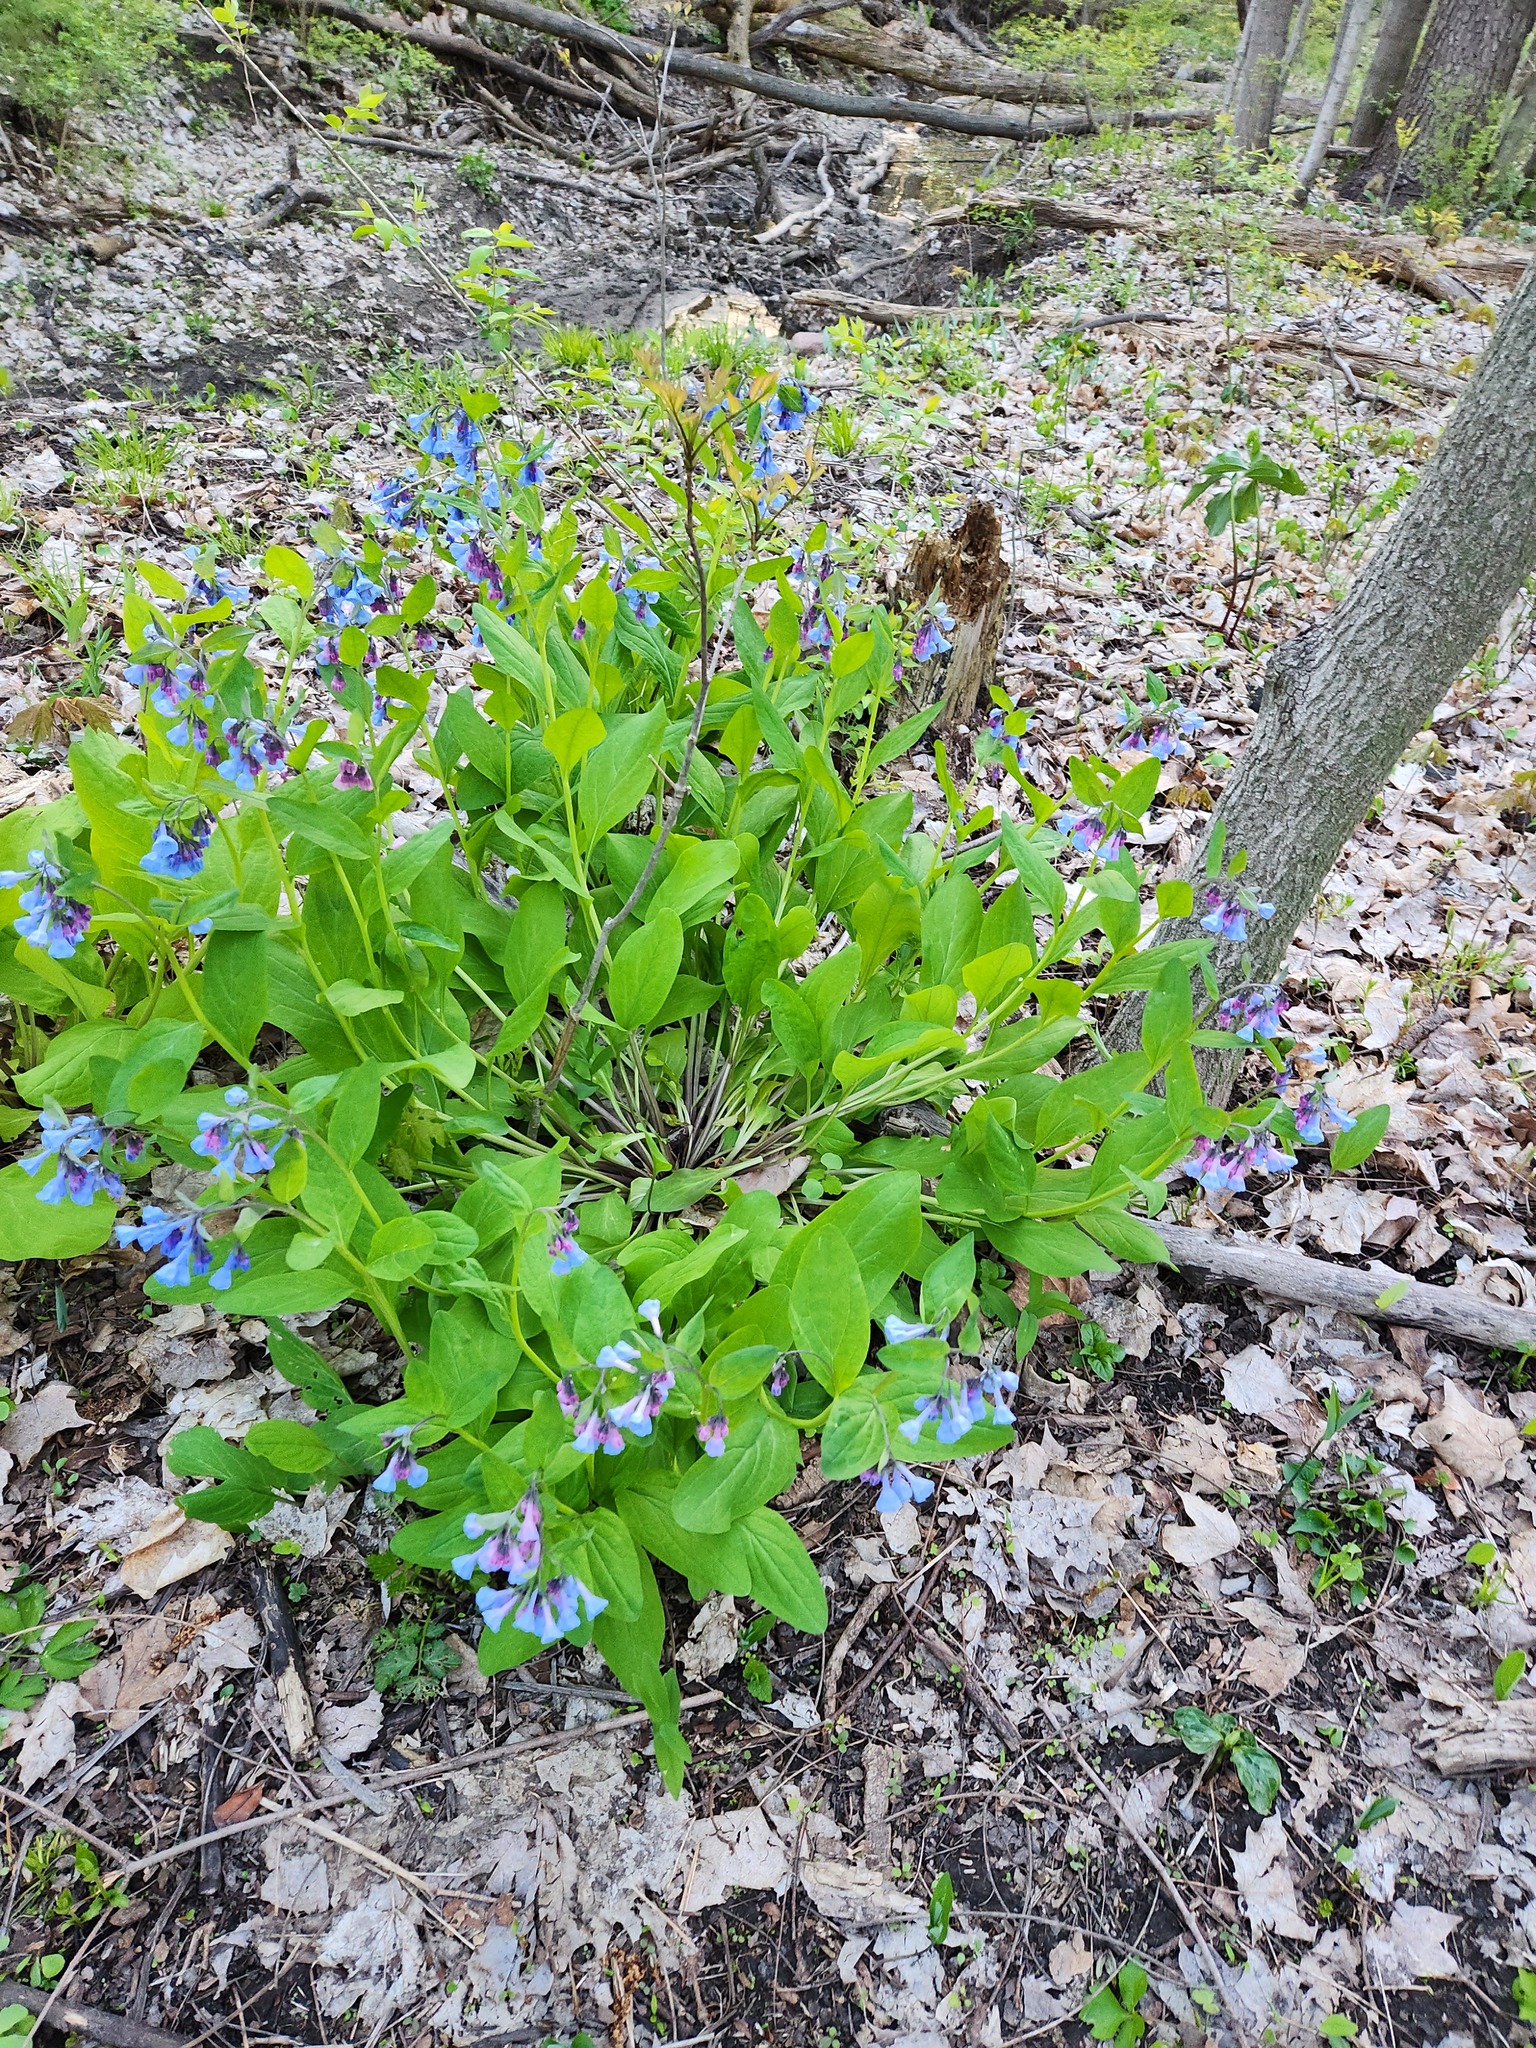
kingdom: Plantae
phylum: Tracheophyta
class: Magnoliopsida
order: Boraginales
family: Boraginaceae
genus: Mertensia
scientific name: Mertensia virginica
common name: Virginia bluebells
